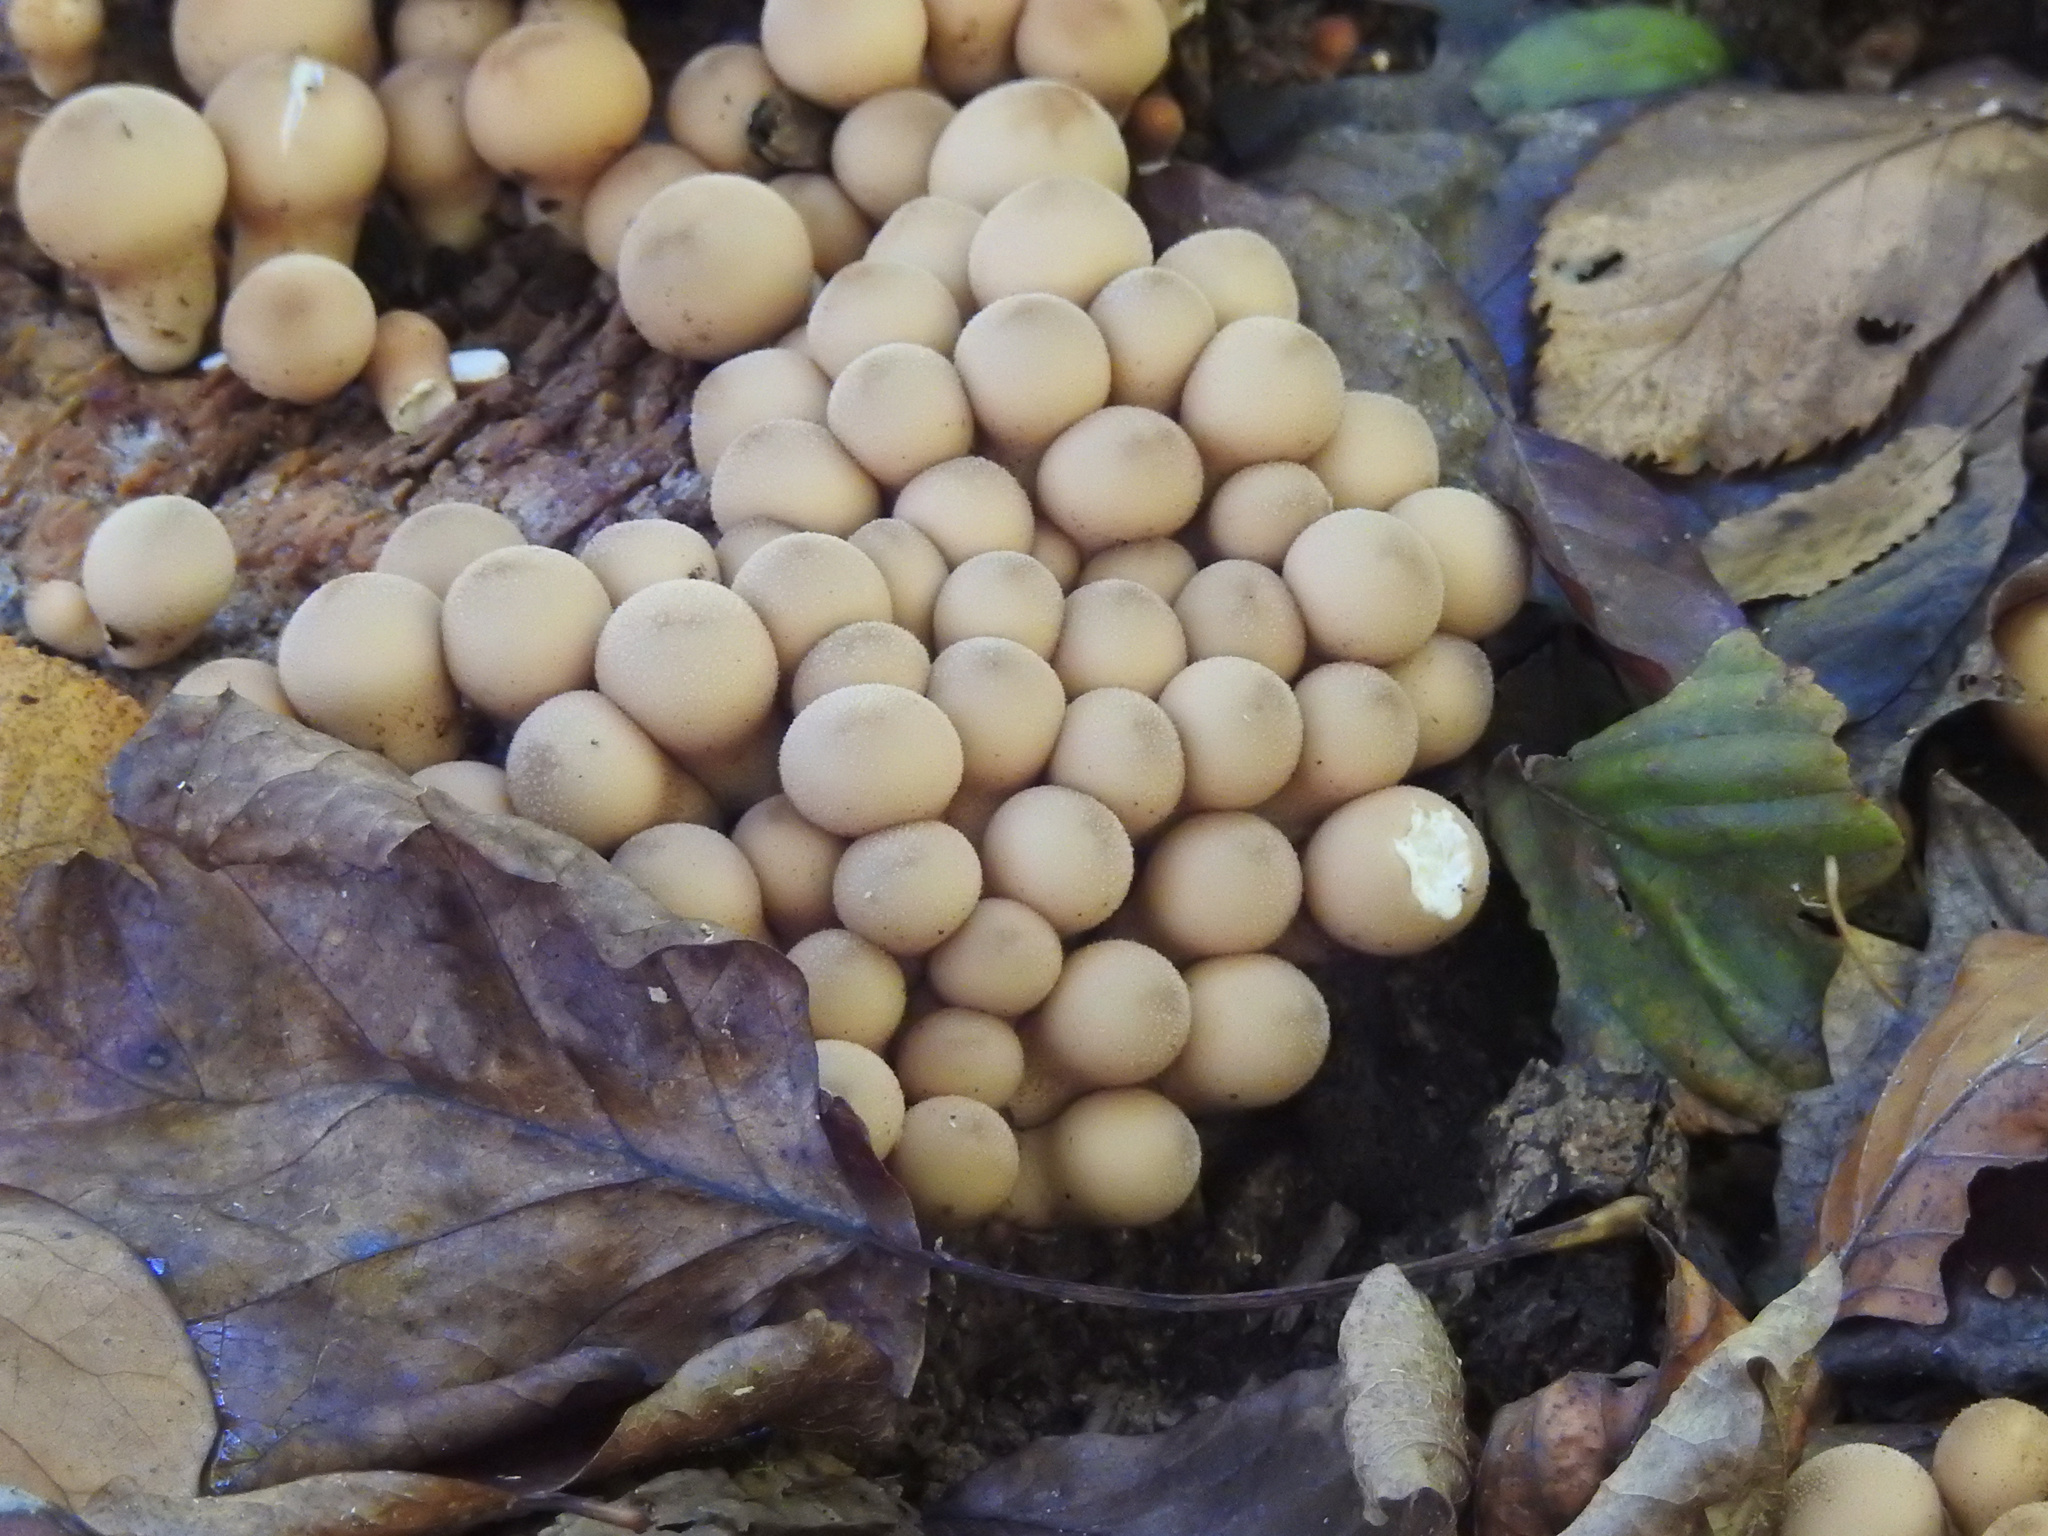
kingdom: Fungi
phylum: Basidiomycota
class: Agaricomycetes
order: Agaricales
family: Lycoperdaceae
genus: Apioperdon
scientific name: Apioperdon pyriforme
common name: Pear-shaped puffball
